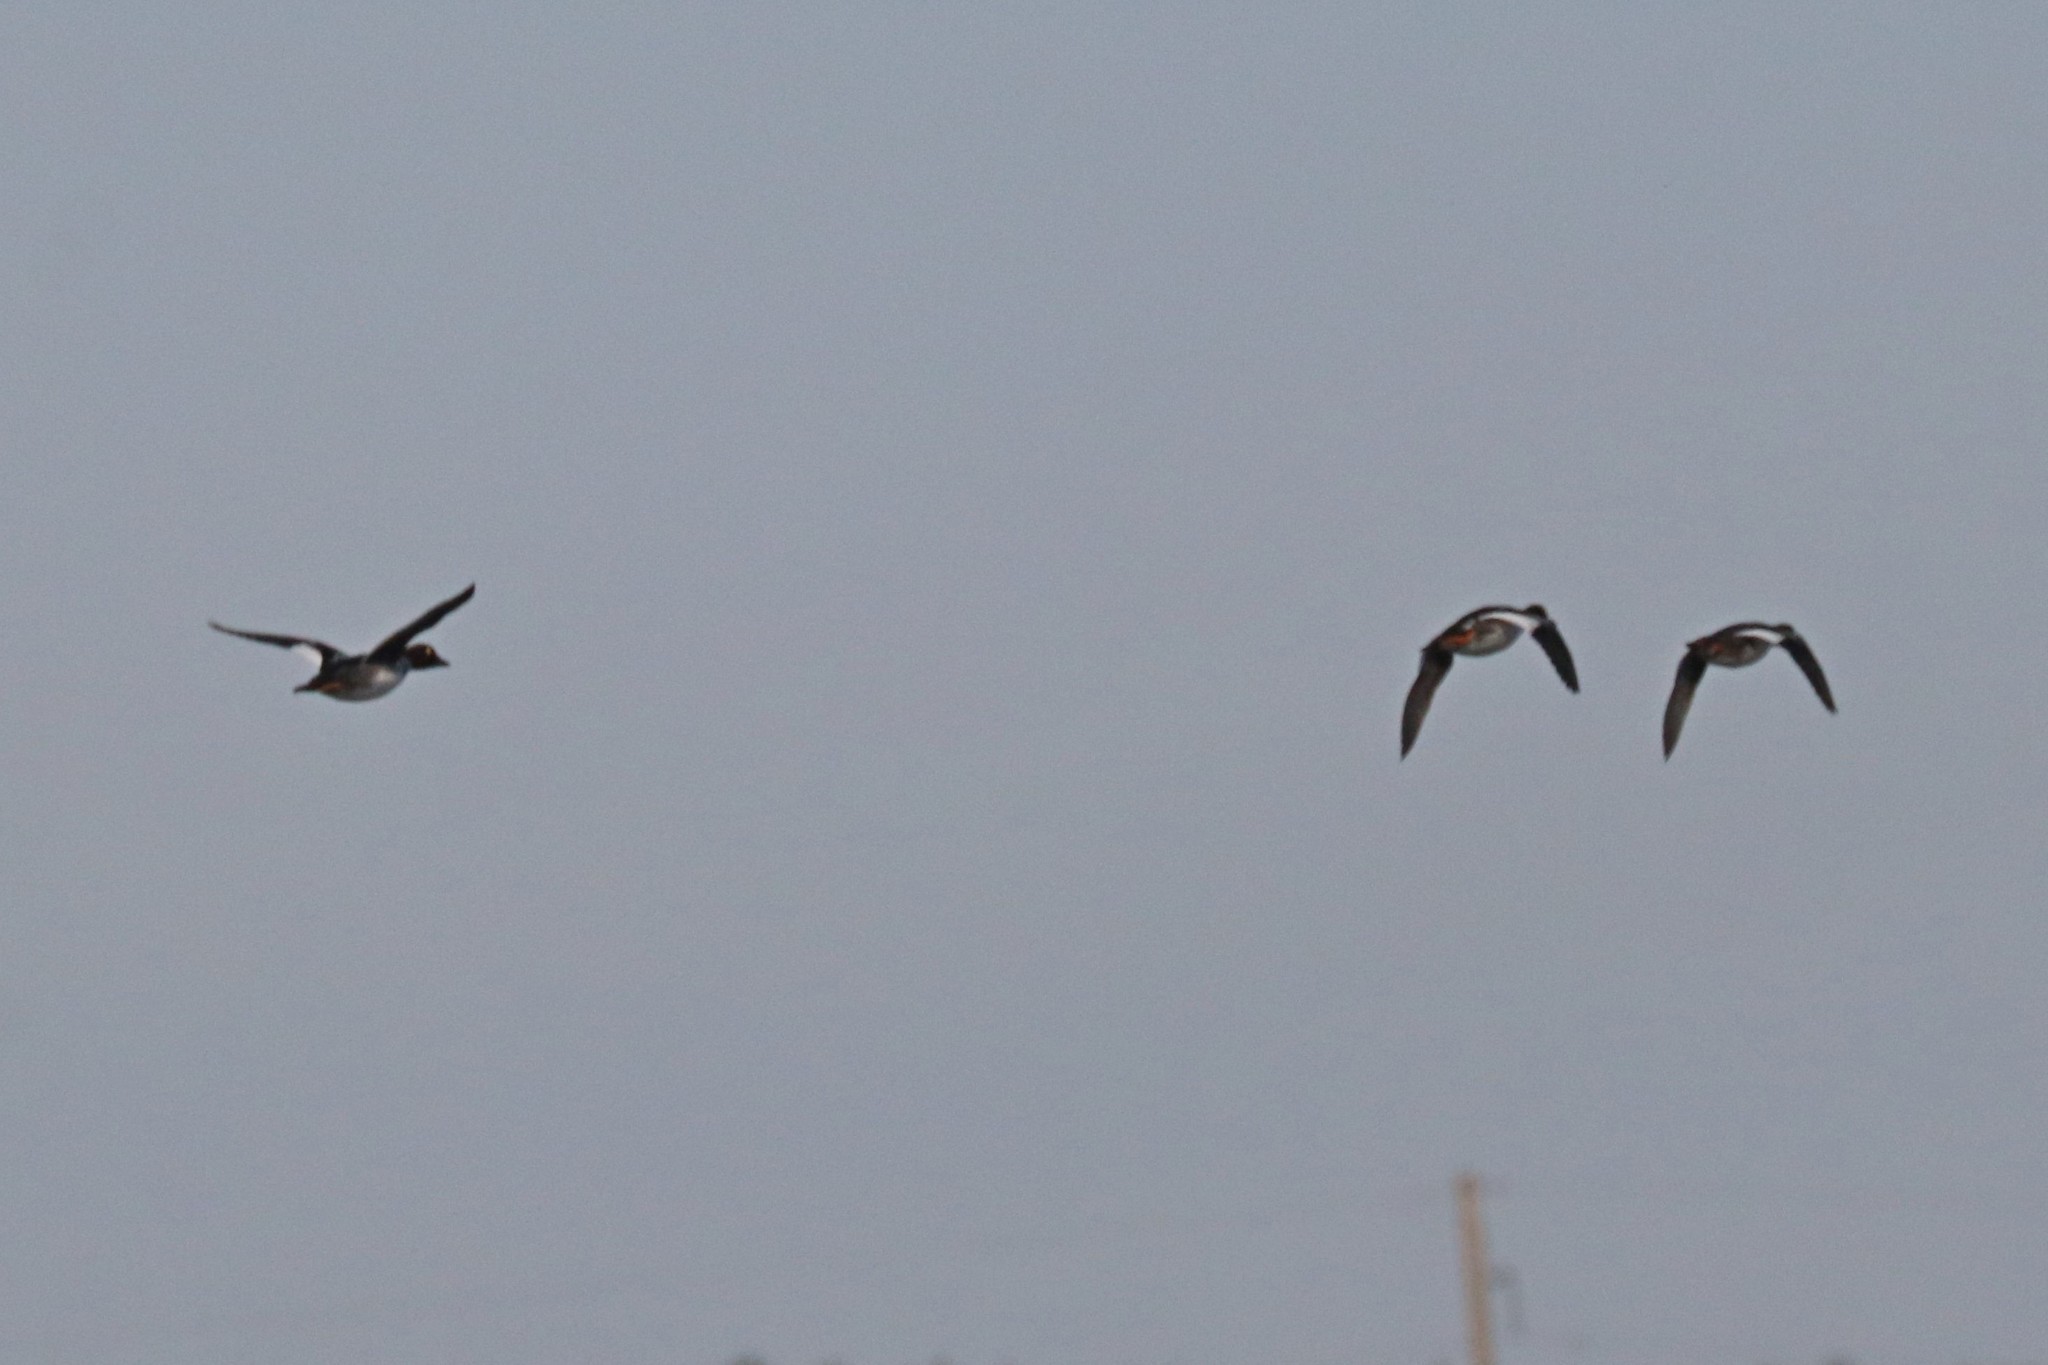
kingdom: Animalia
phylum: Chordata
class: Aves
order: Anseriformes
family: Anatidae
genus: Bucephala
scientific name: Bucephala clangula
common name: Common goldeneye
